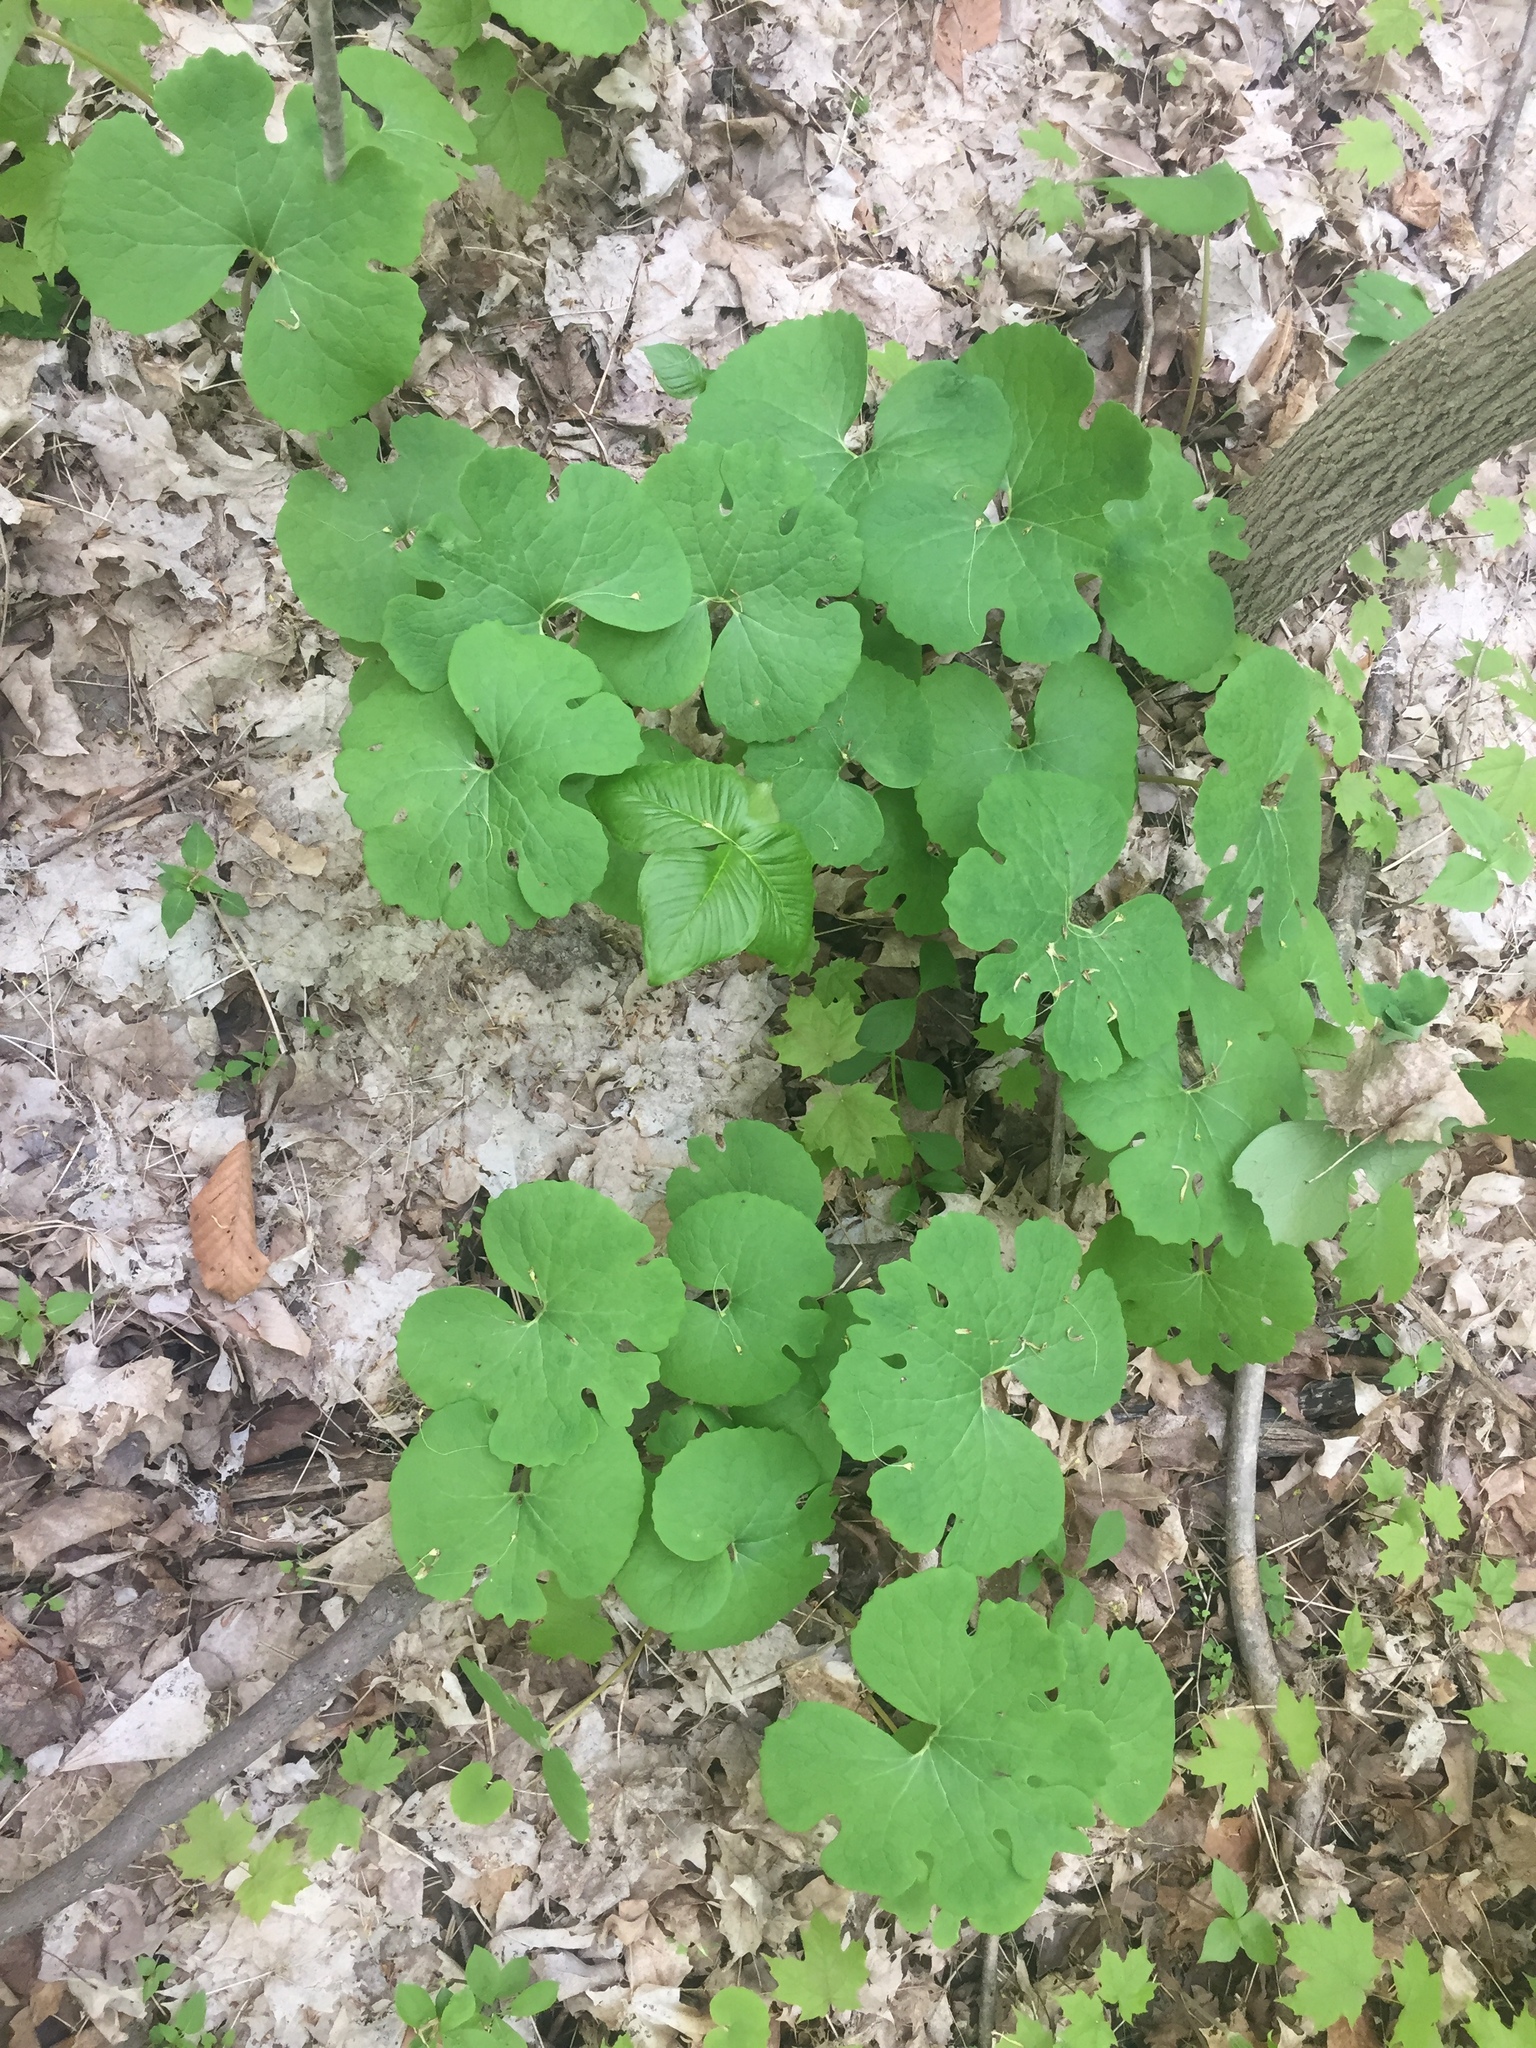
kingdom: Plantae
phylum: Tracheophyta
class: Magnoliopsida
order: Ranunculales
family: Papaveraceae
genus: Sanguinaria
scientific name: Sanguinaria canadensis
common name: Bloodroot
